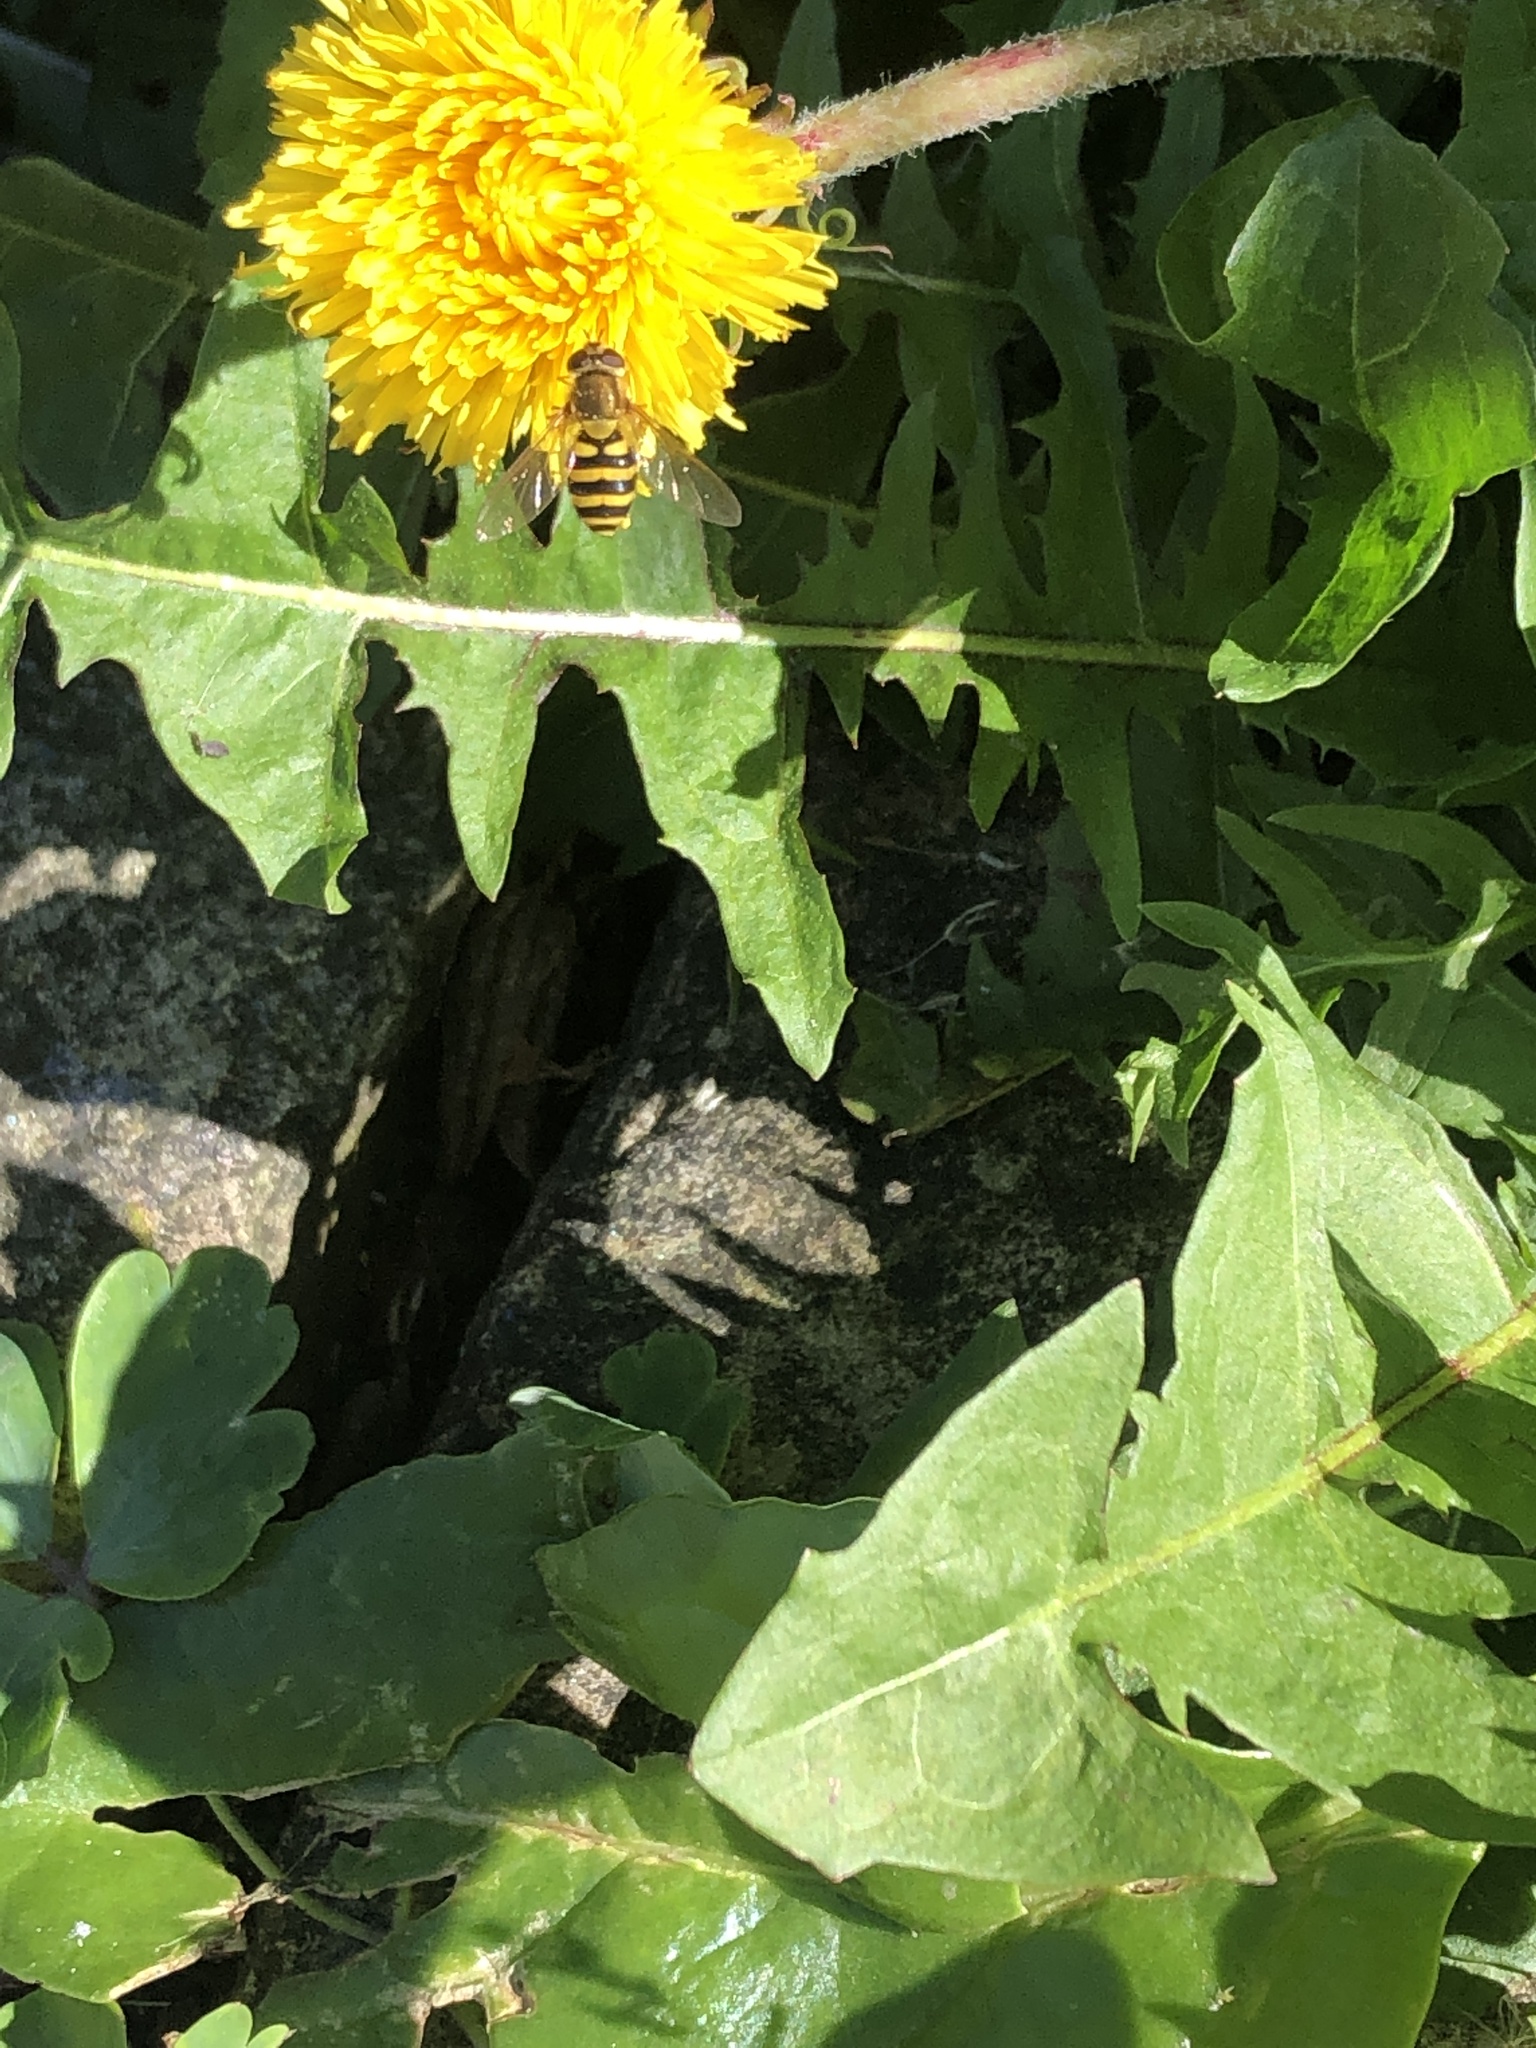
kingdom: Animalia
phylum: Arthropoda
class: Insecta
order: Diptera
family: Syrphidae
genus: Myathropa
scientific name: Myathropa florea
